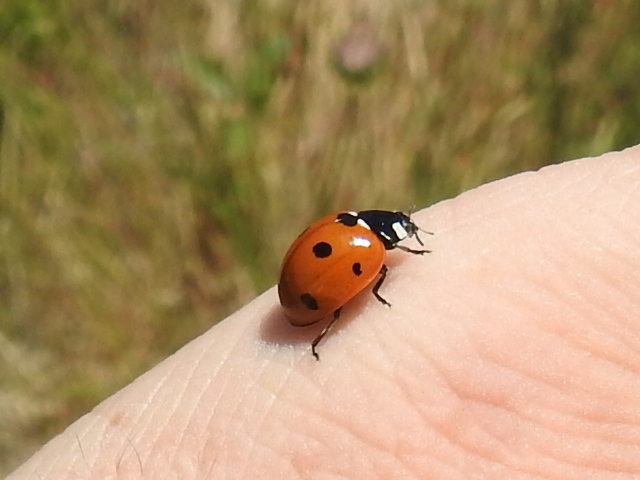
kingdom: Animalia
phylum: Arthropoda
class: Insecta
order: Coleoptera
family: Coccinellidae
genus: Coccinella
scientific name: Coccinella septempunctata
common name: Sevenspotted lady beetle
